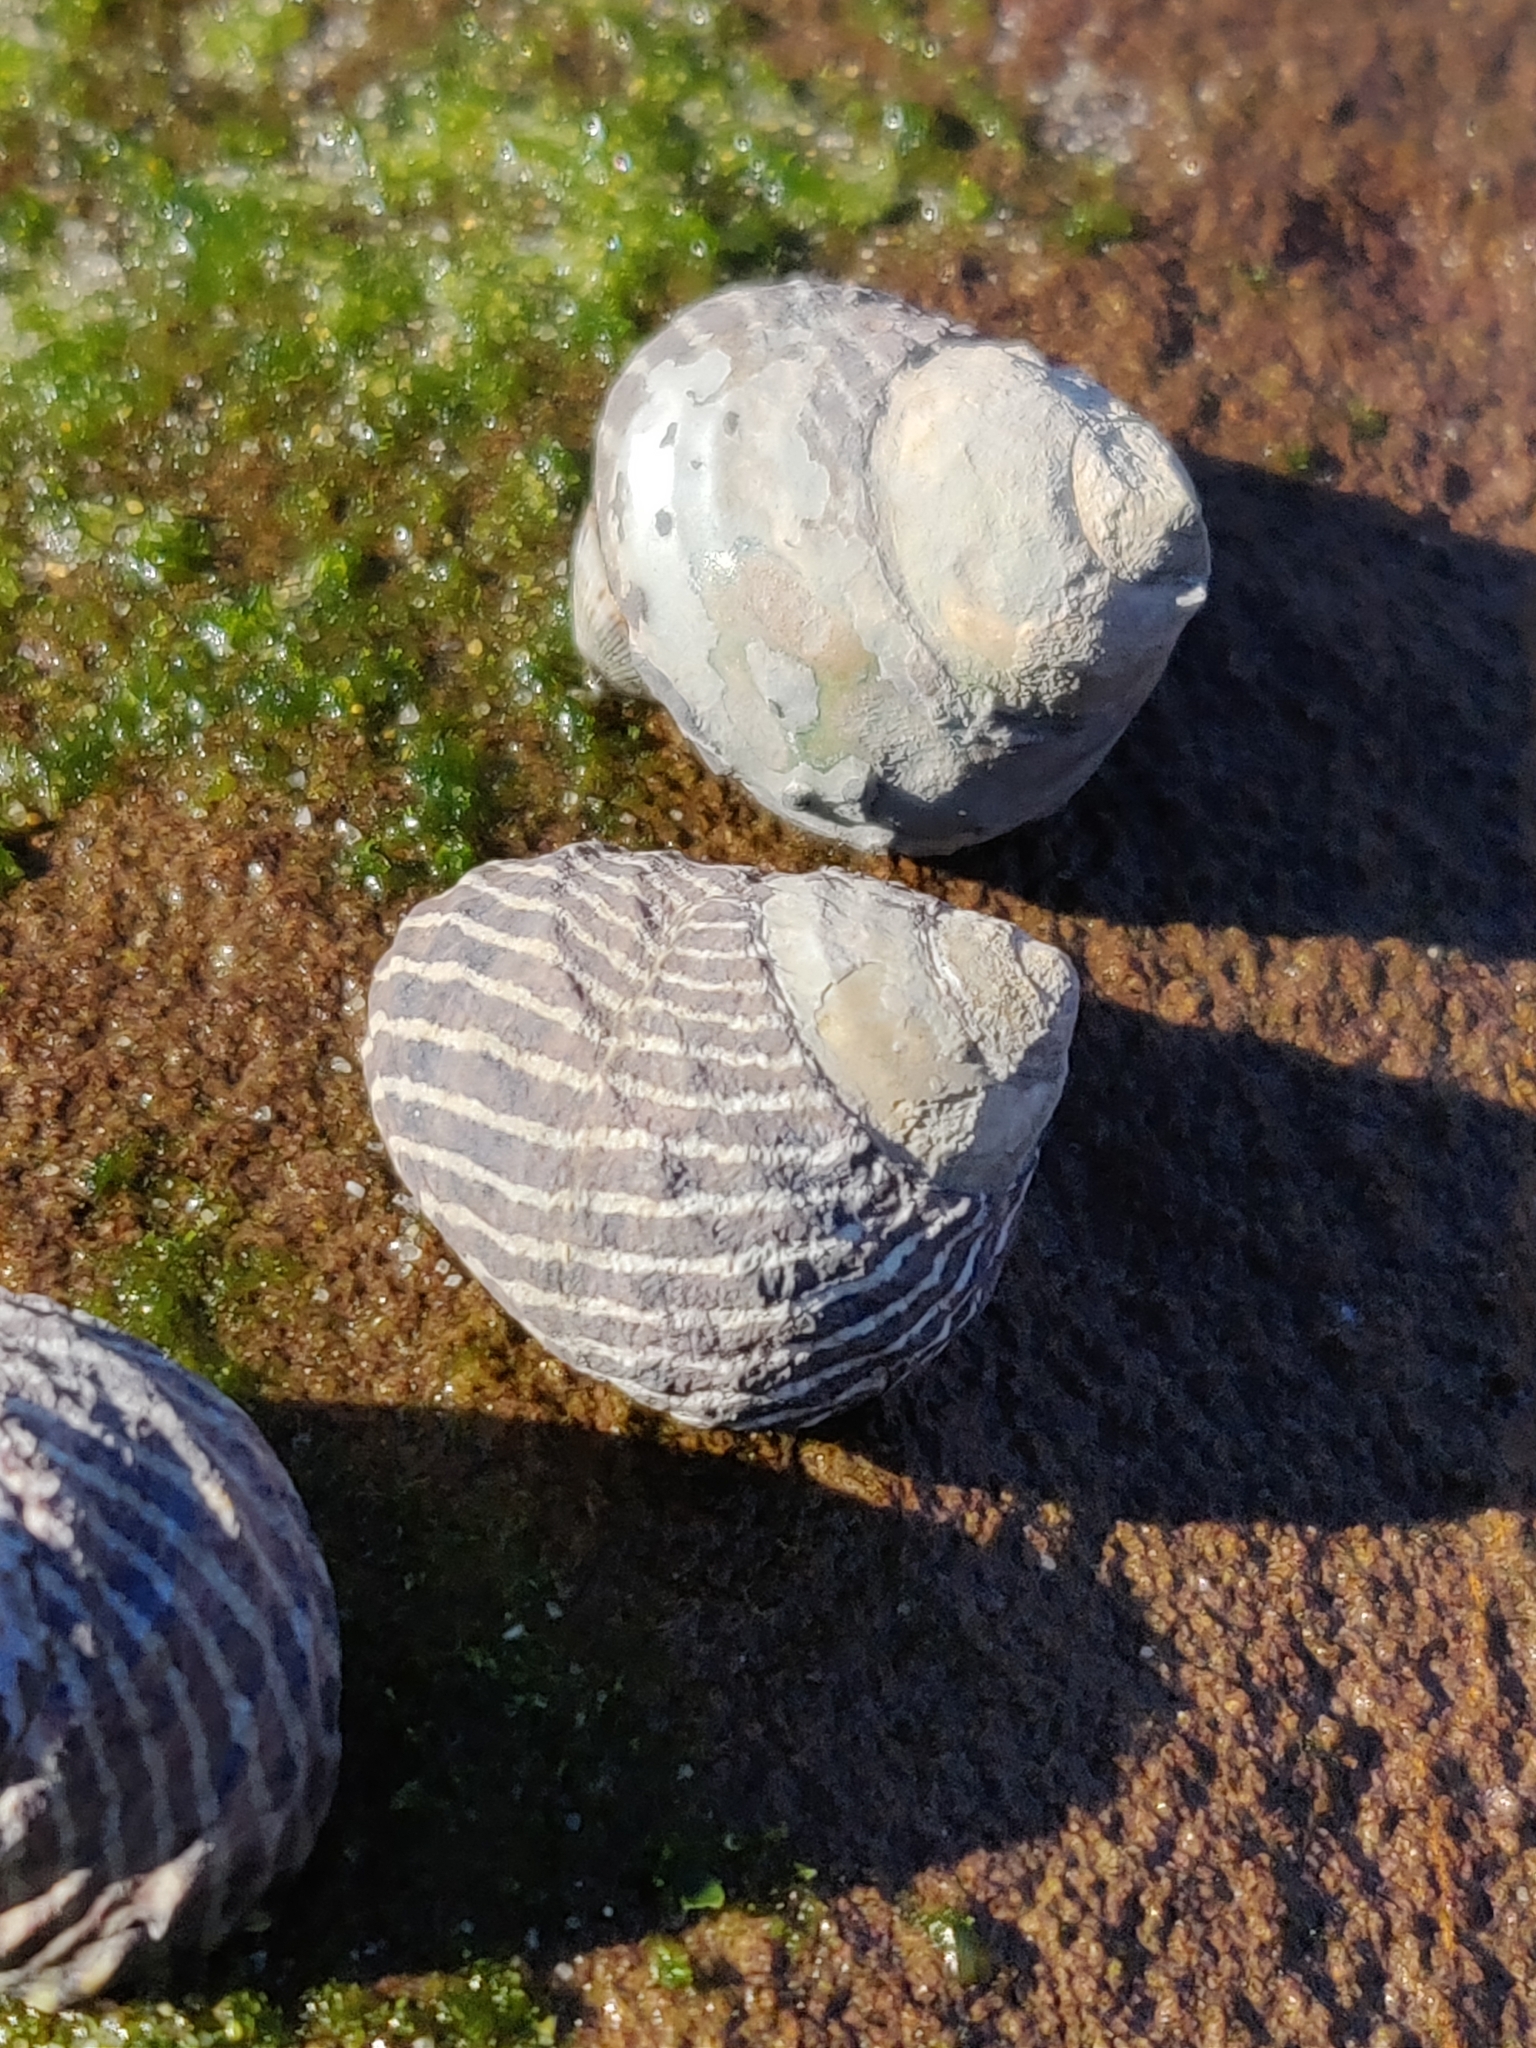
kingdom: Animalia
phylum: Mollusca
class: Gastropoda
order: Trochida
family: Trochidae
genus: Austrocochlea
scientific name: Austrocochlea porcata
